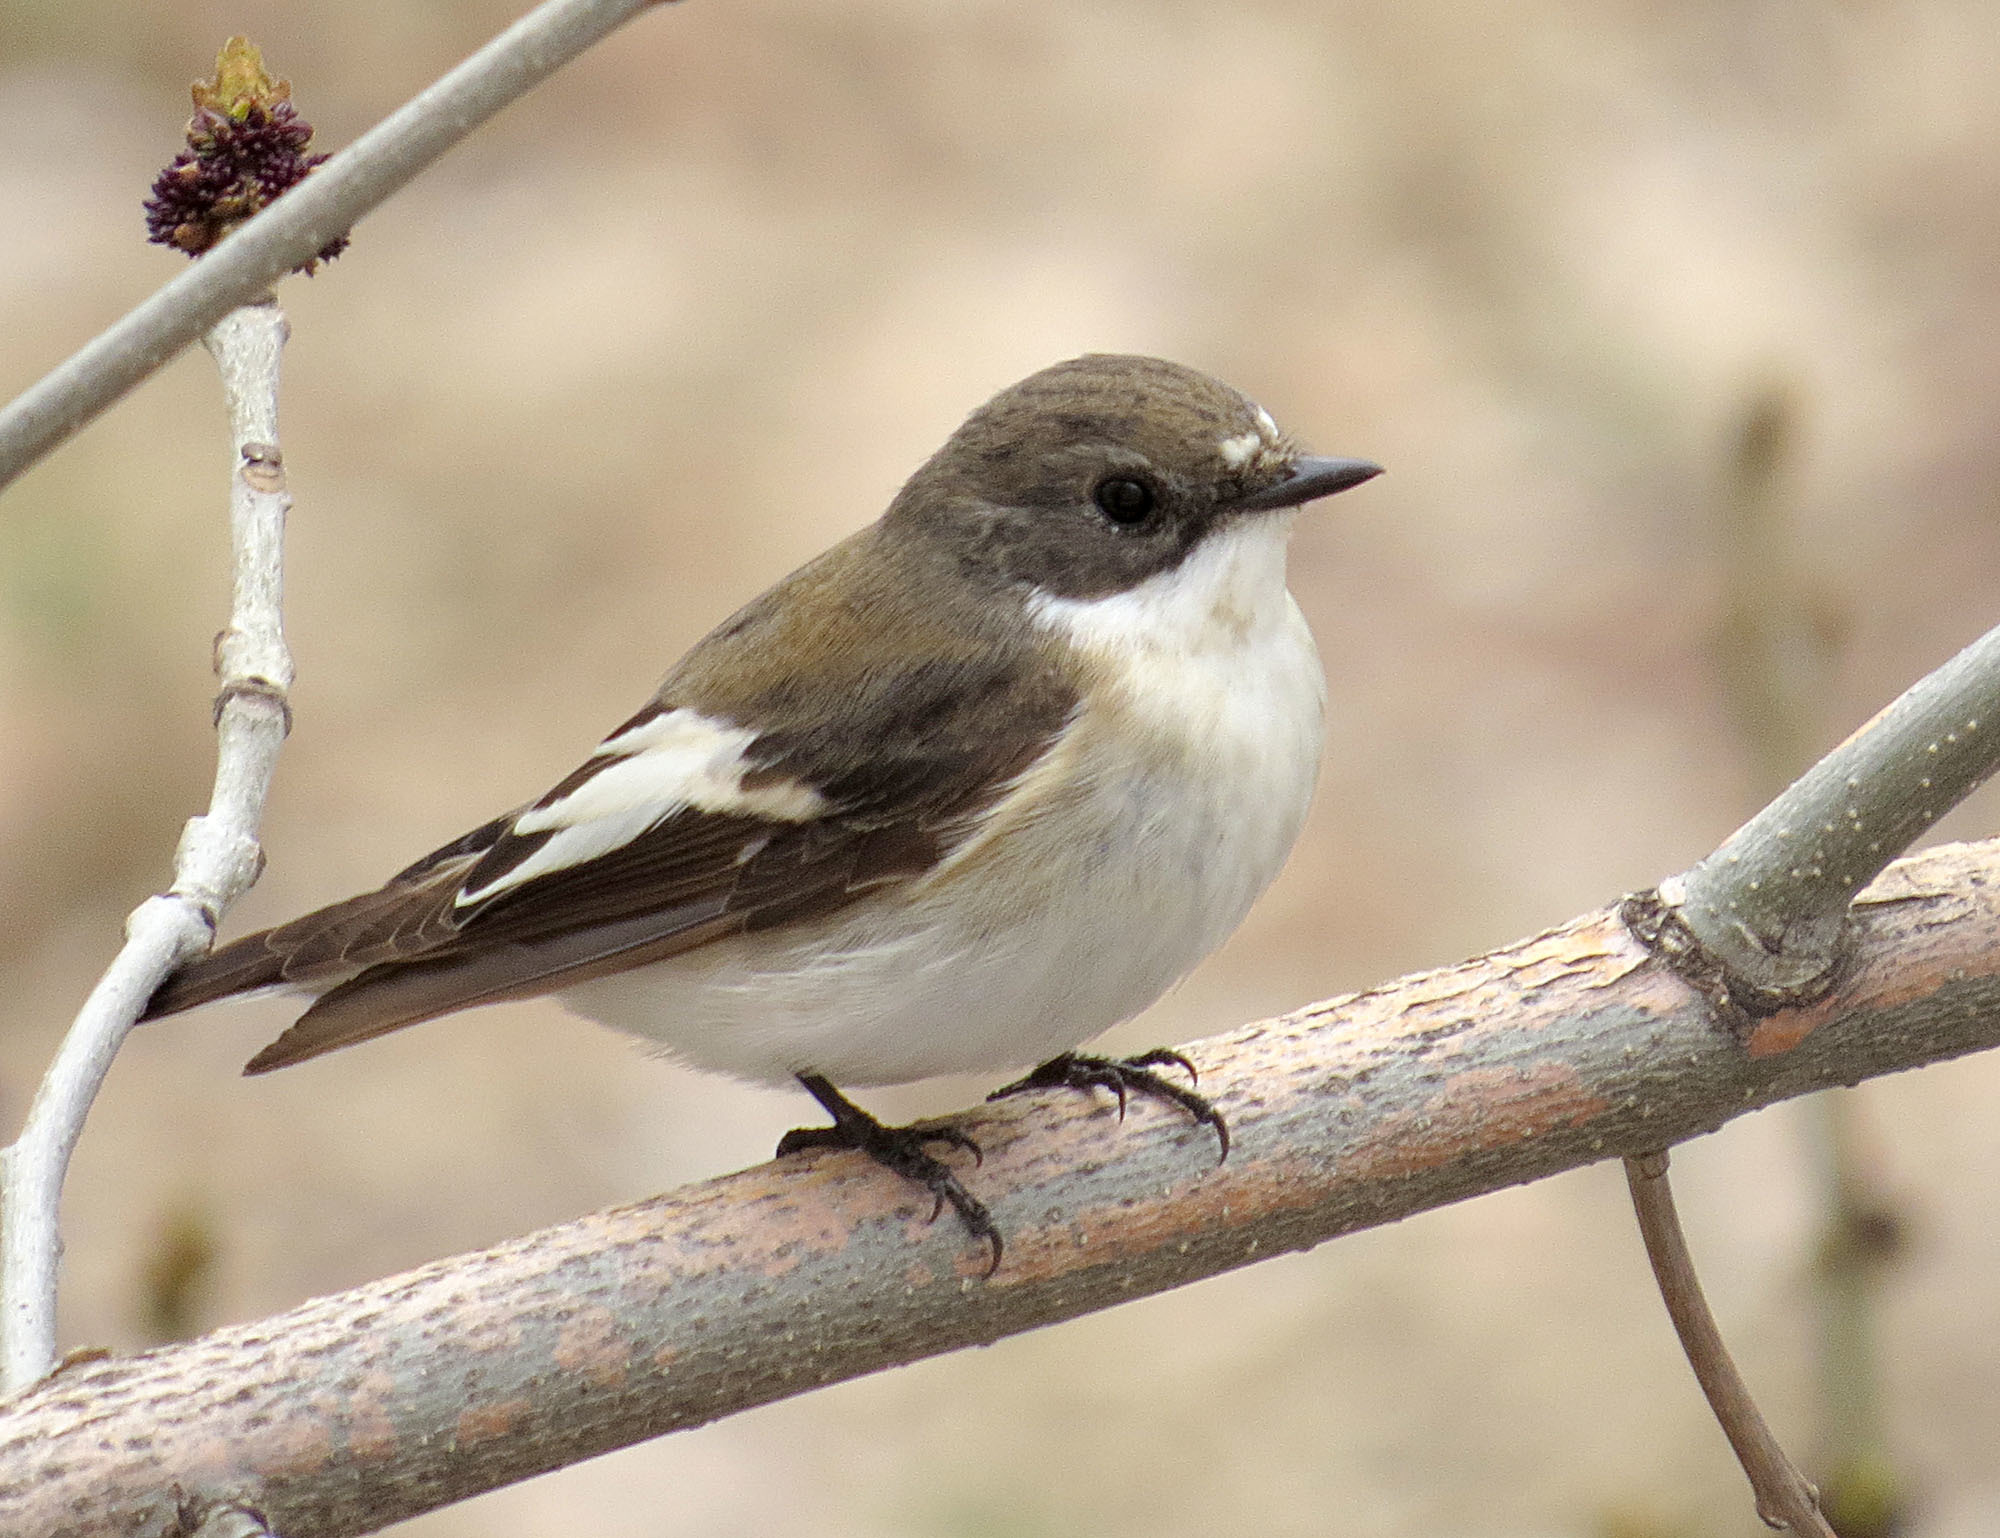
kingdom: Animalia
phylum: Chordata
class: Aves
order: Passeriformes
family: Muscicapidae
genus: Ficedula
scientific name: Ficedula hypoleuca
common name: European pied flycatcher
